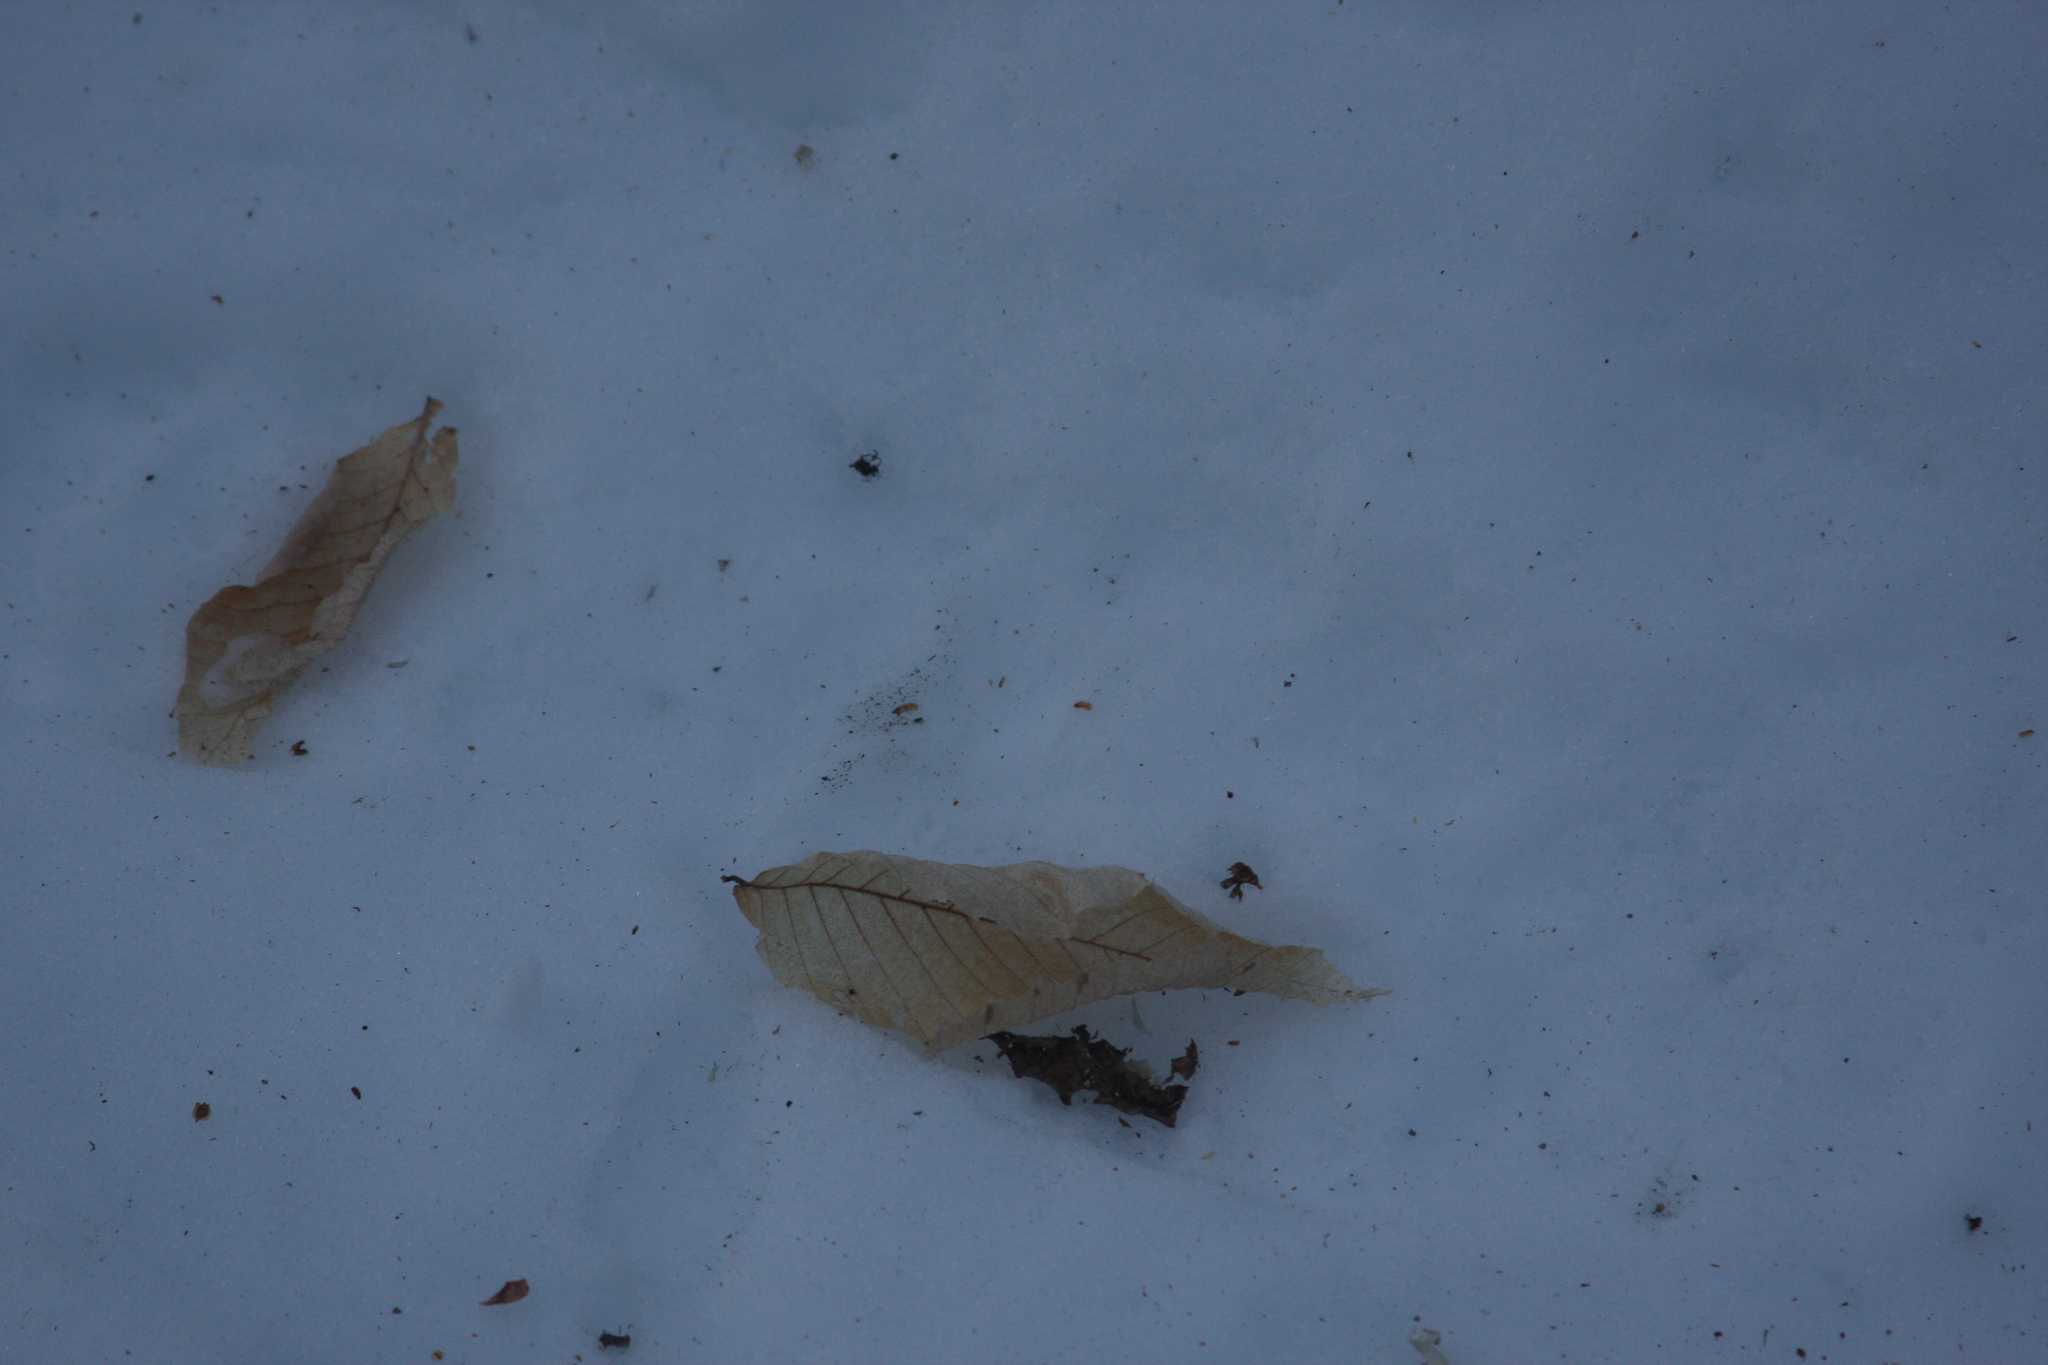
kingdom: Plantae
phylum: Tracheophyta
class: Magnoliopsida
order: Fagales
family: Fagaceae
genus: Fagus
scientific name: Fagus grandifolia
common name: American beech
